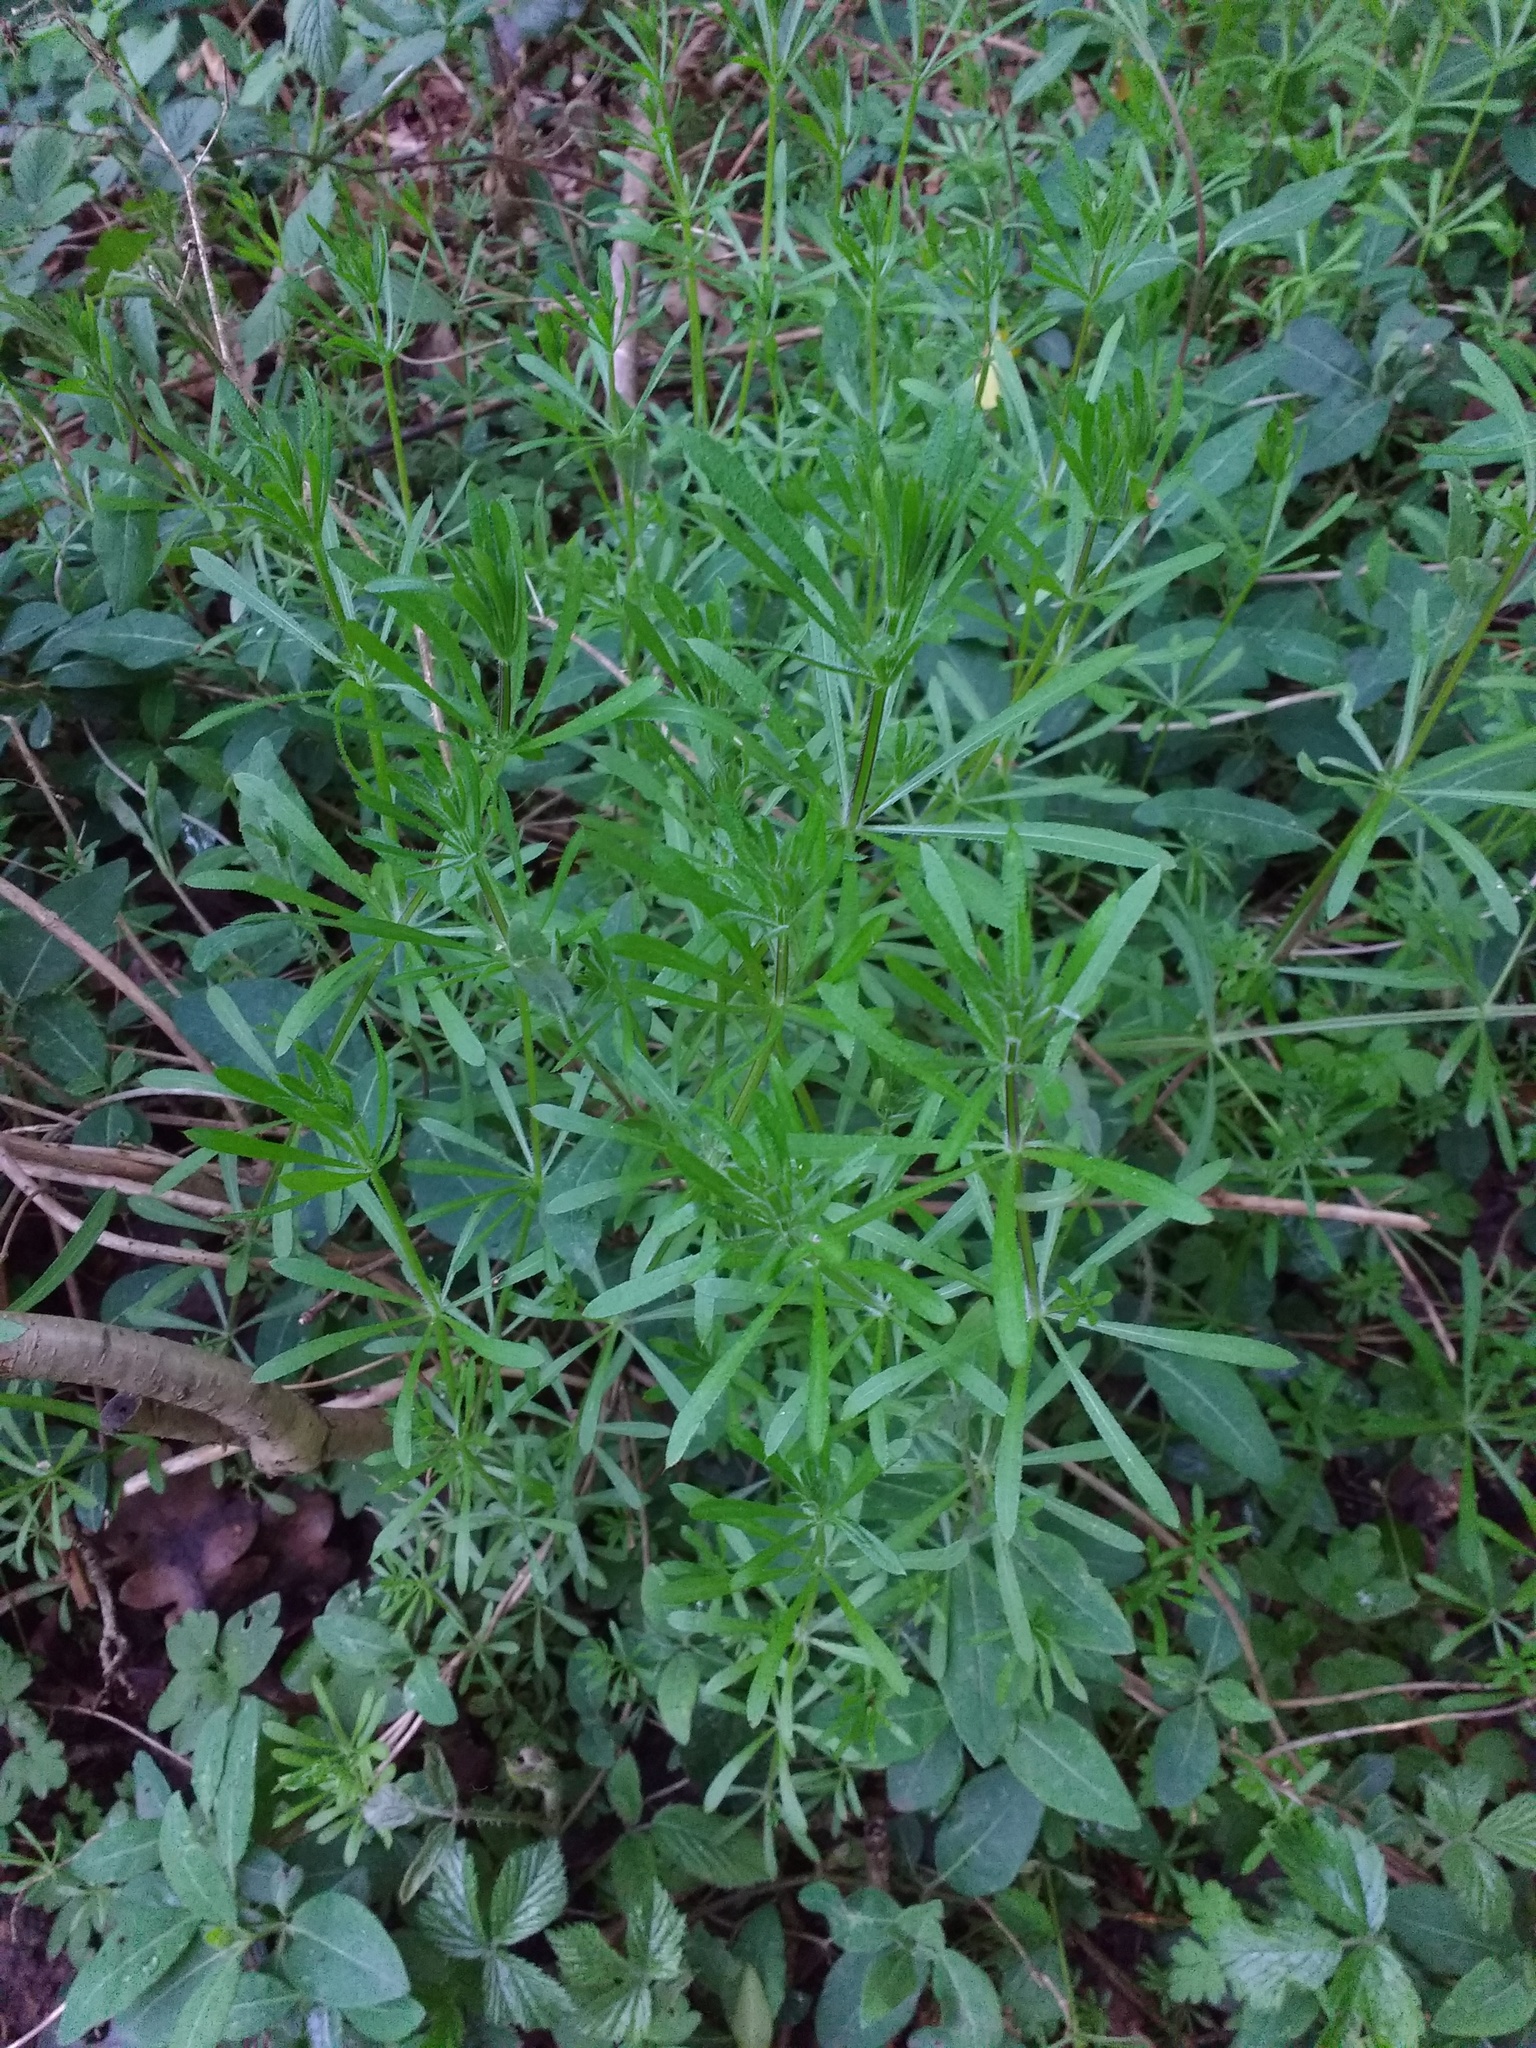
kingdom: Plantae
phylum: Tracheophyta
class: Magnoliopsida
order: Gentianales
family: Rubiaceae
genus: Galium
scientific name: Galium aparine
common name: Cleavers
